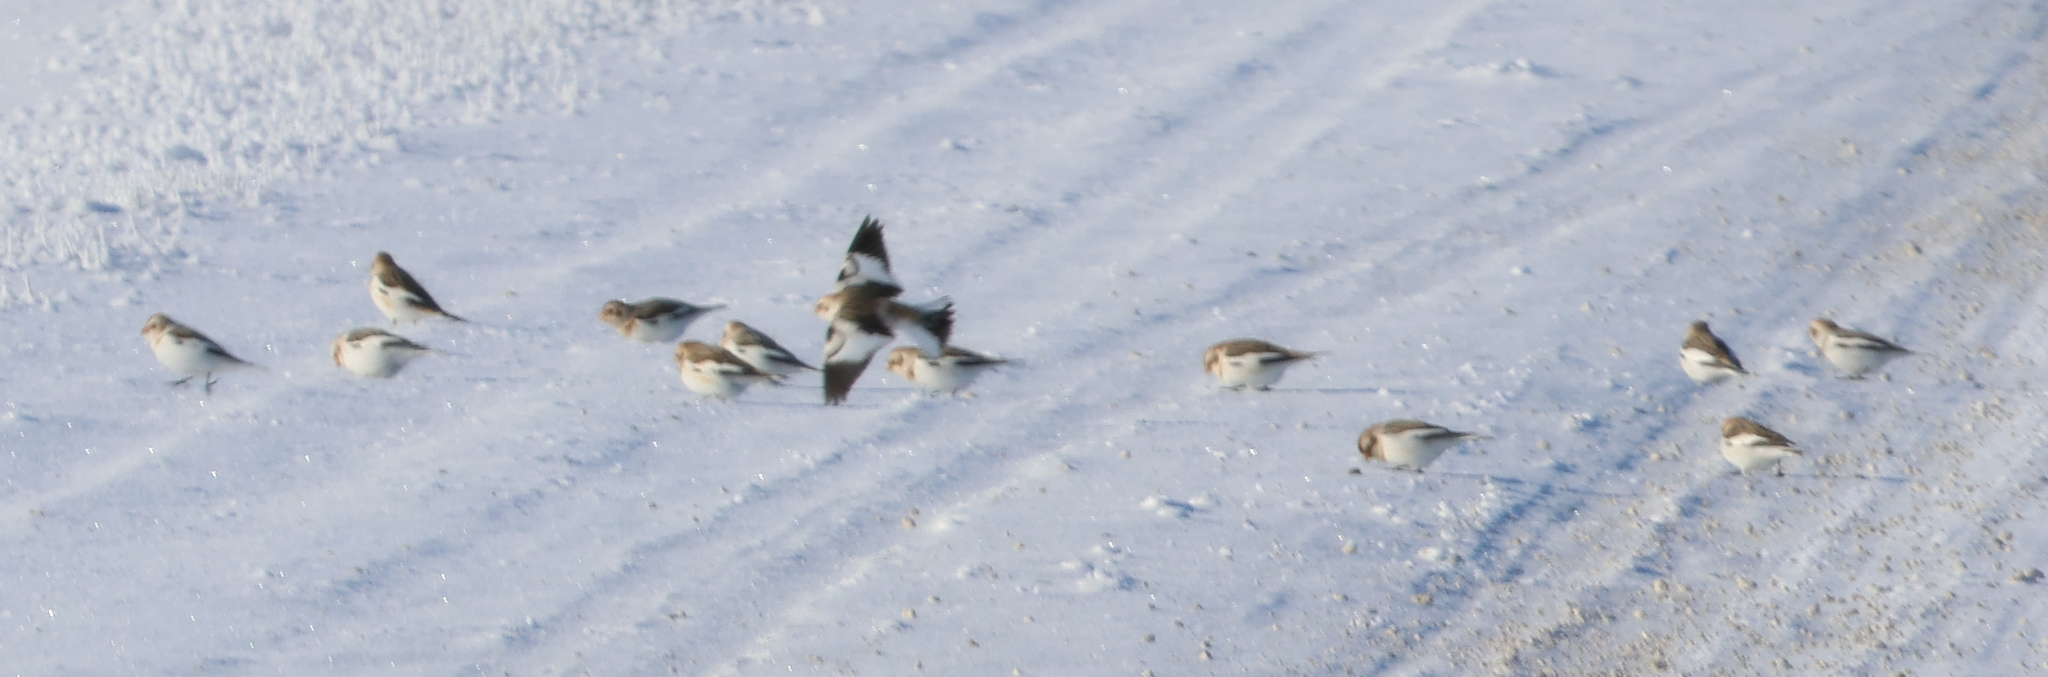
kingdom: Animalia
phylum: Chordata
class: Aves
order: Passeriformes
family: Calcariidae
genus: Plectrophenax
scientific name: Plectrophenax nivalis
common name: Snow bunting
